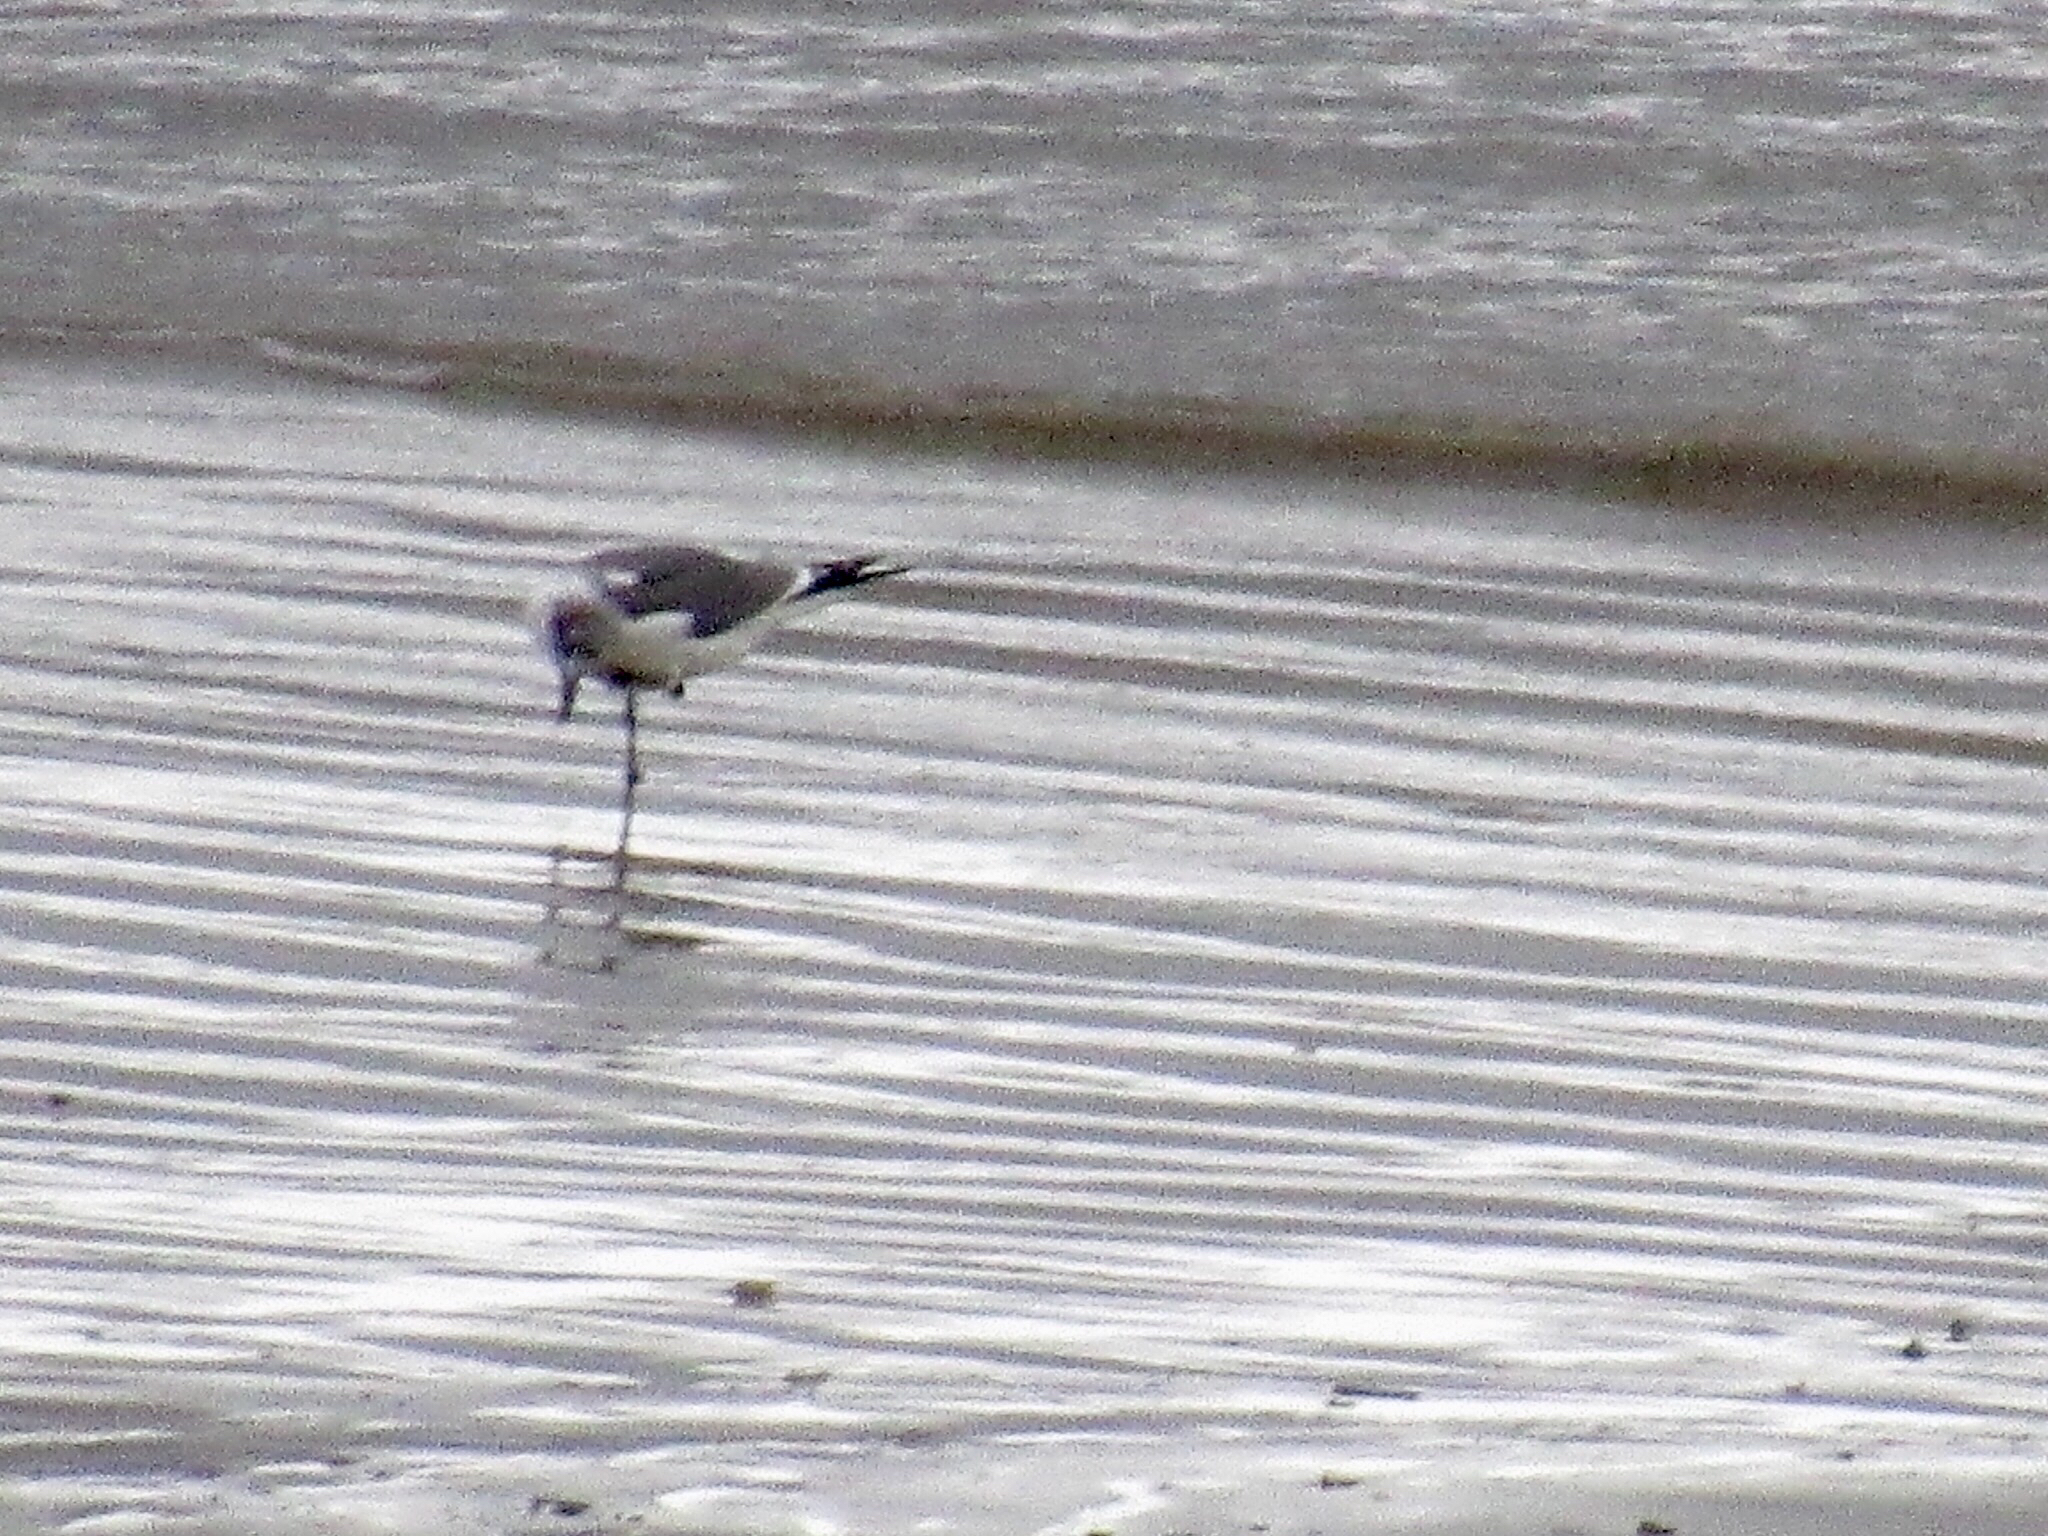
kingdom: Animalia
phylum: Chordata
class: Aves
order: Charadriiformes
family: Laridae
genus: Leucophaeus
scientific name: Leucophaeus atricilla
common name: Laughing gull
